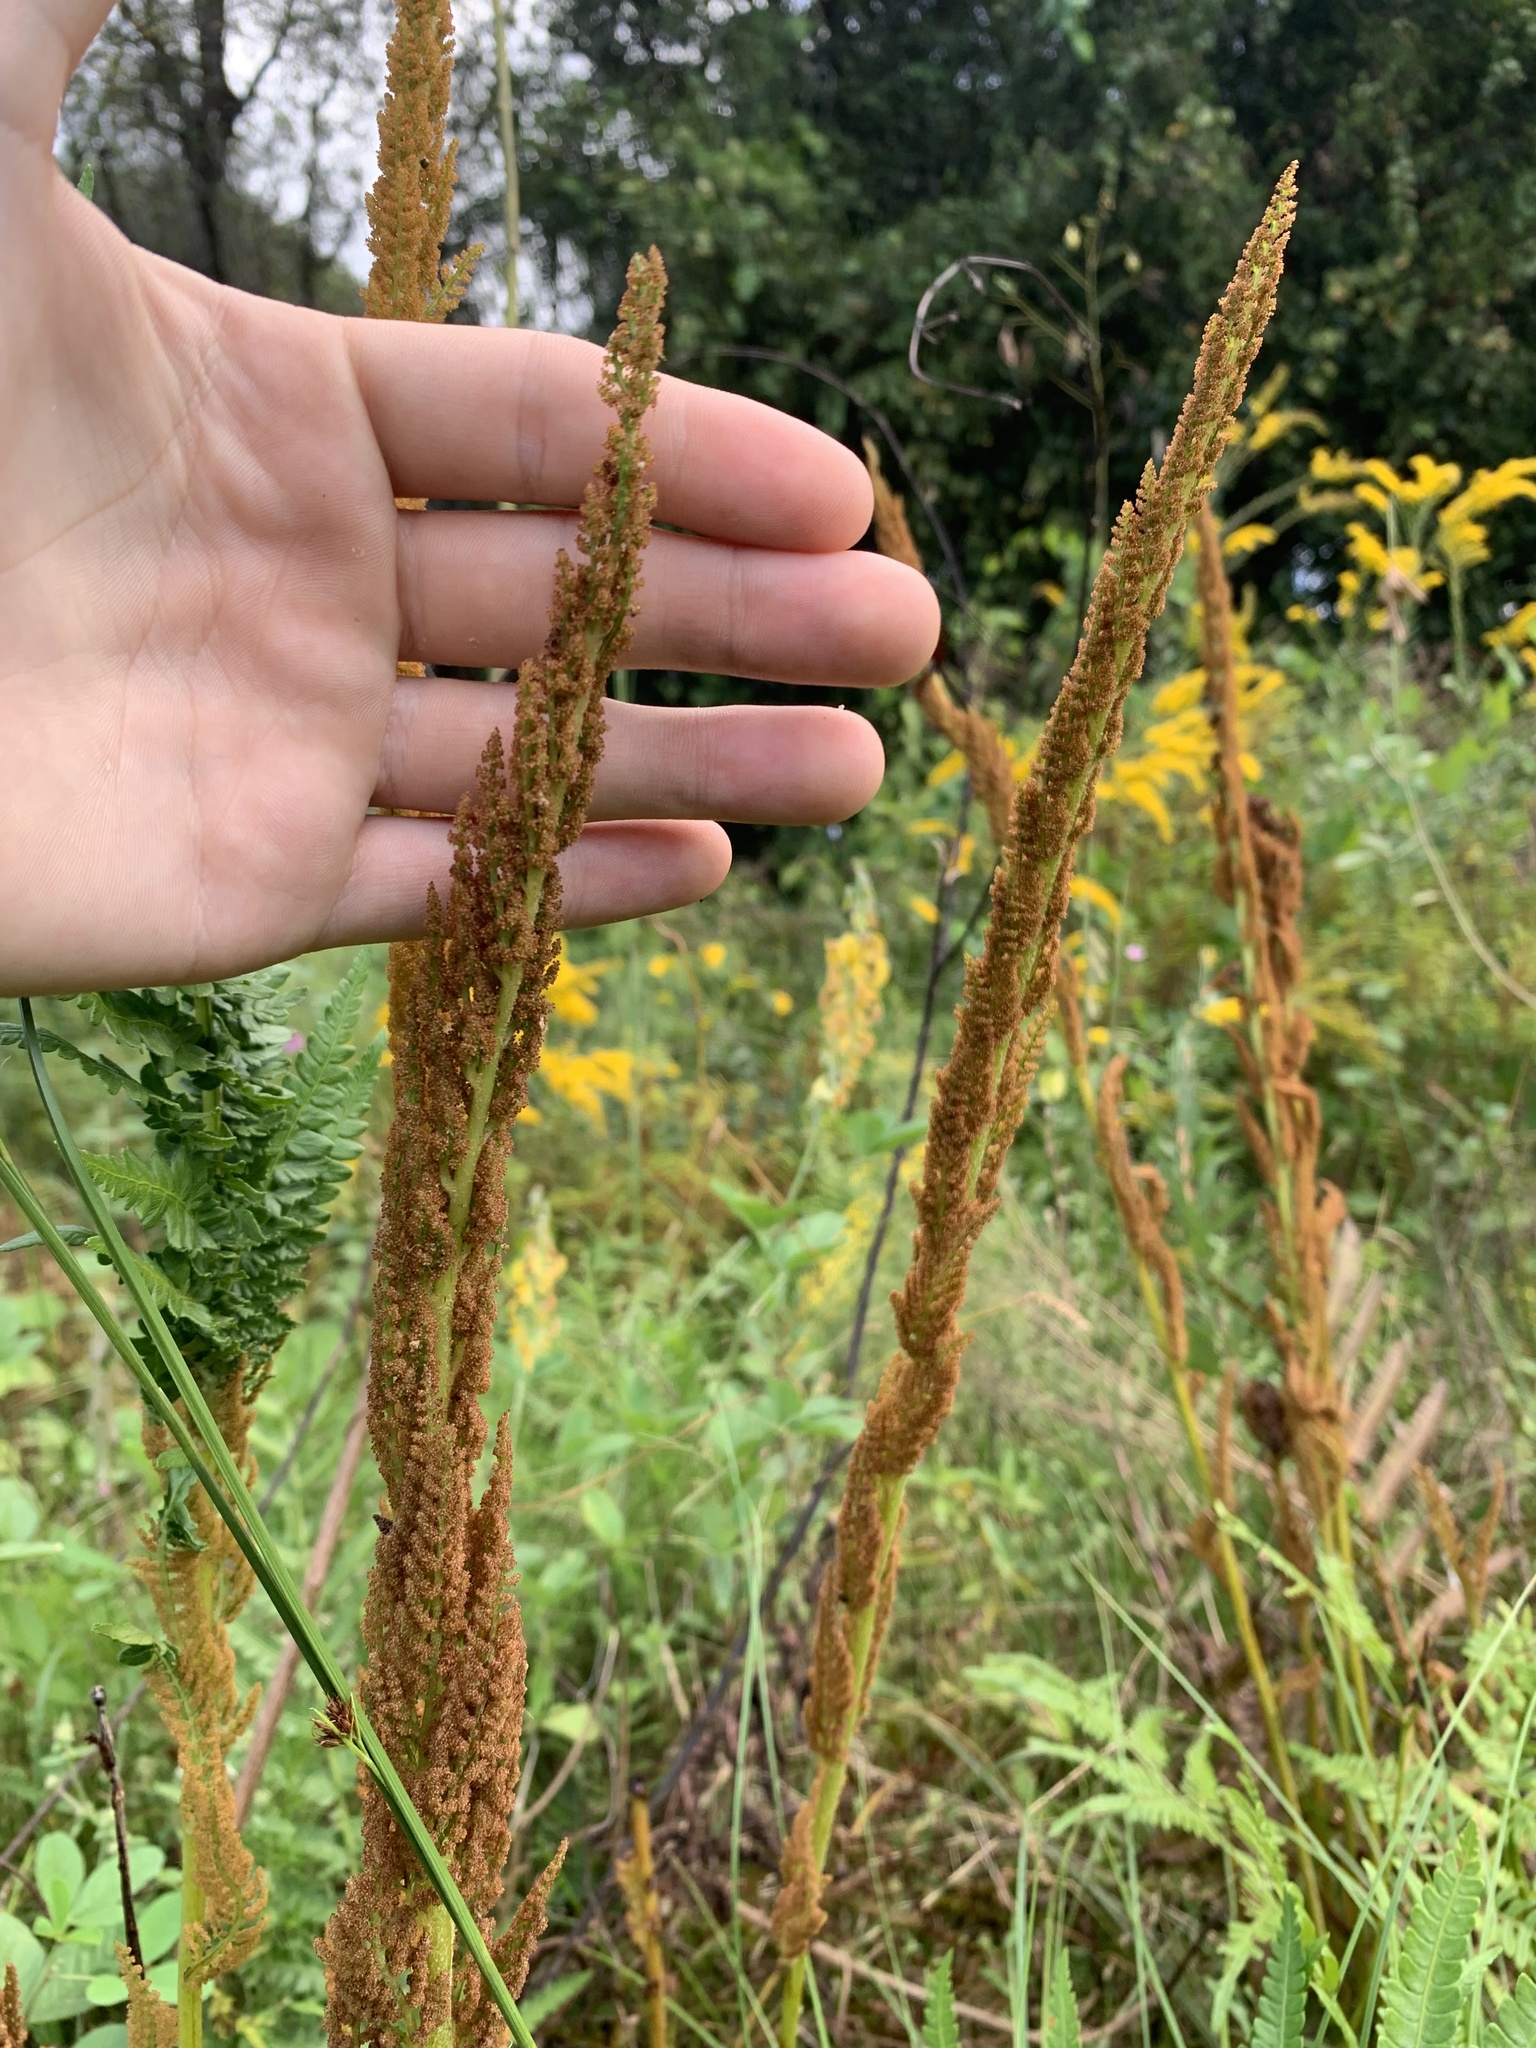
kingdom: Plantae
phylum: Tracheophyta
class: Polypodiopsida
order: Osmundales
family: Osmundaceae
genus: Osmundastrum
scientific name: Osmundastrum cinnamomeum
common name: Cinnamon fern
